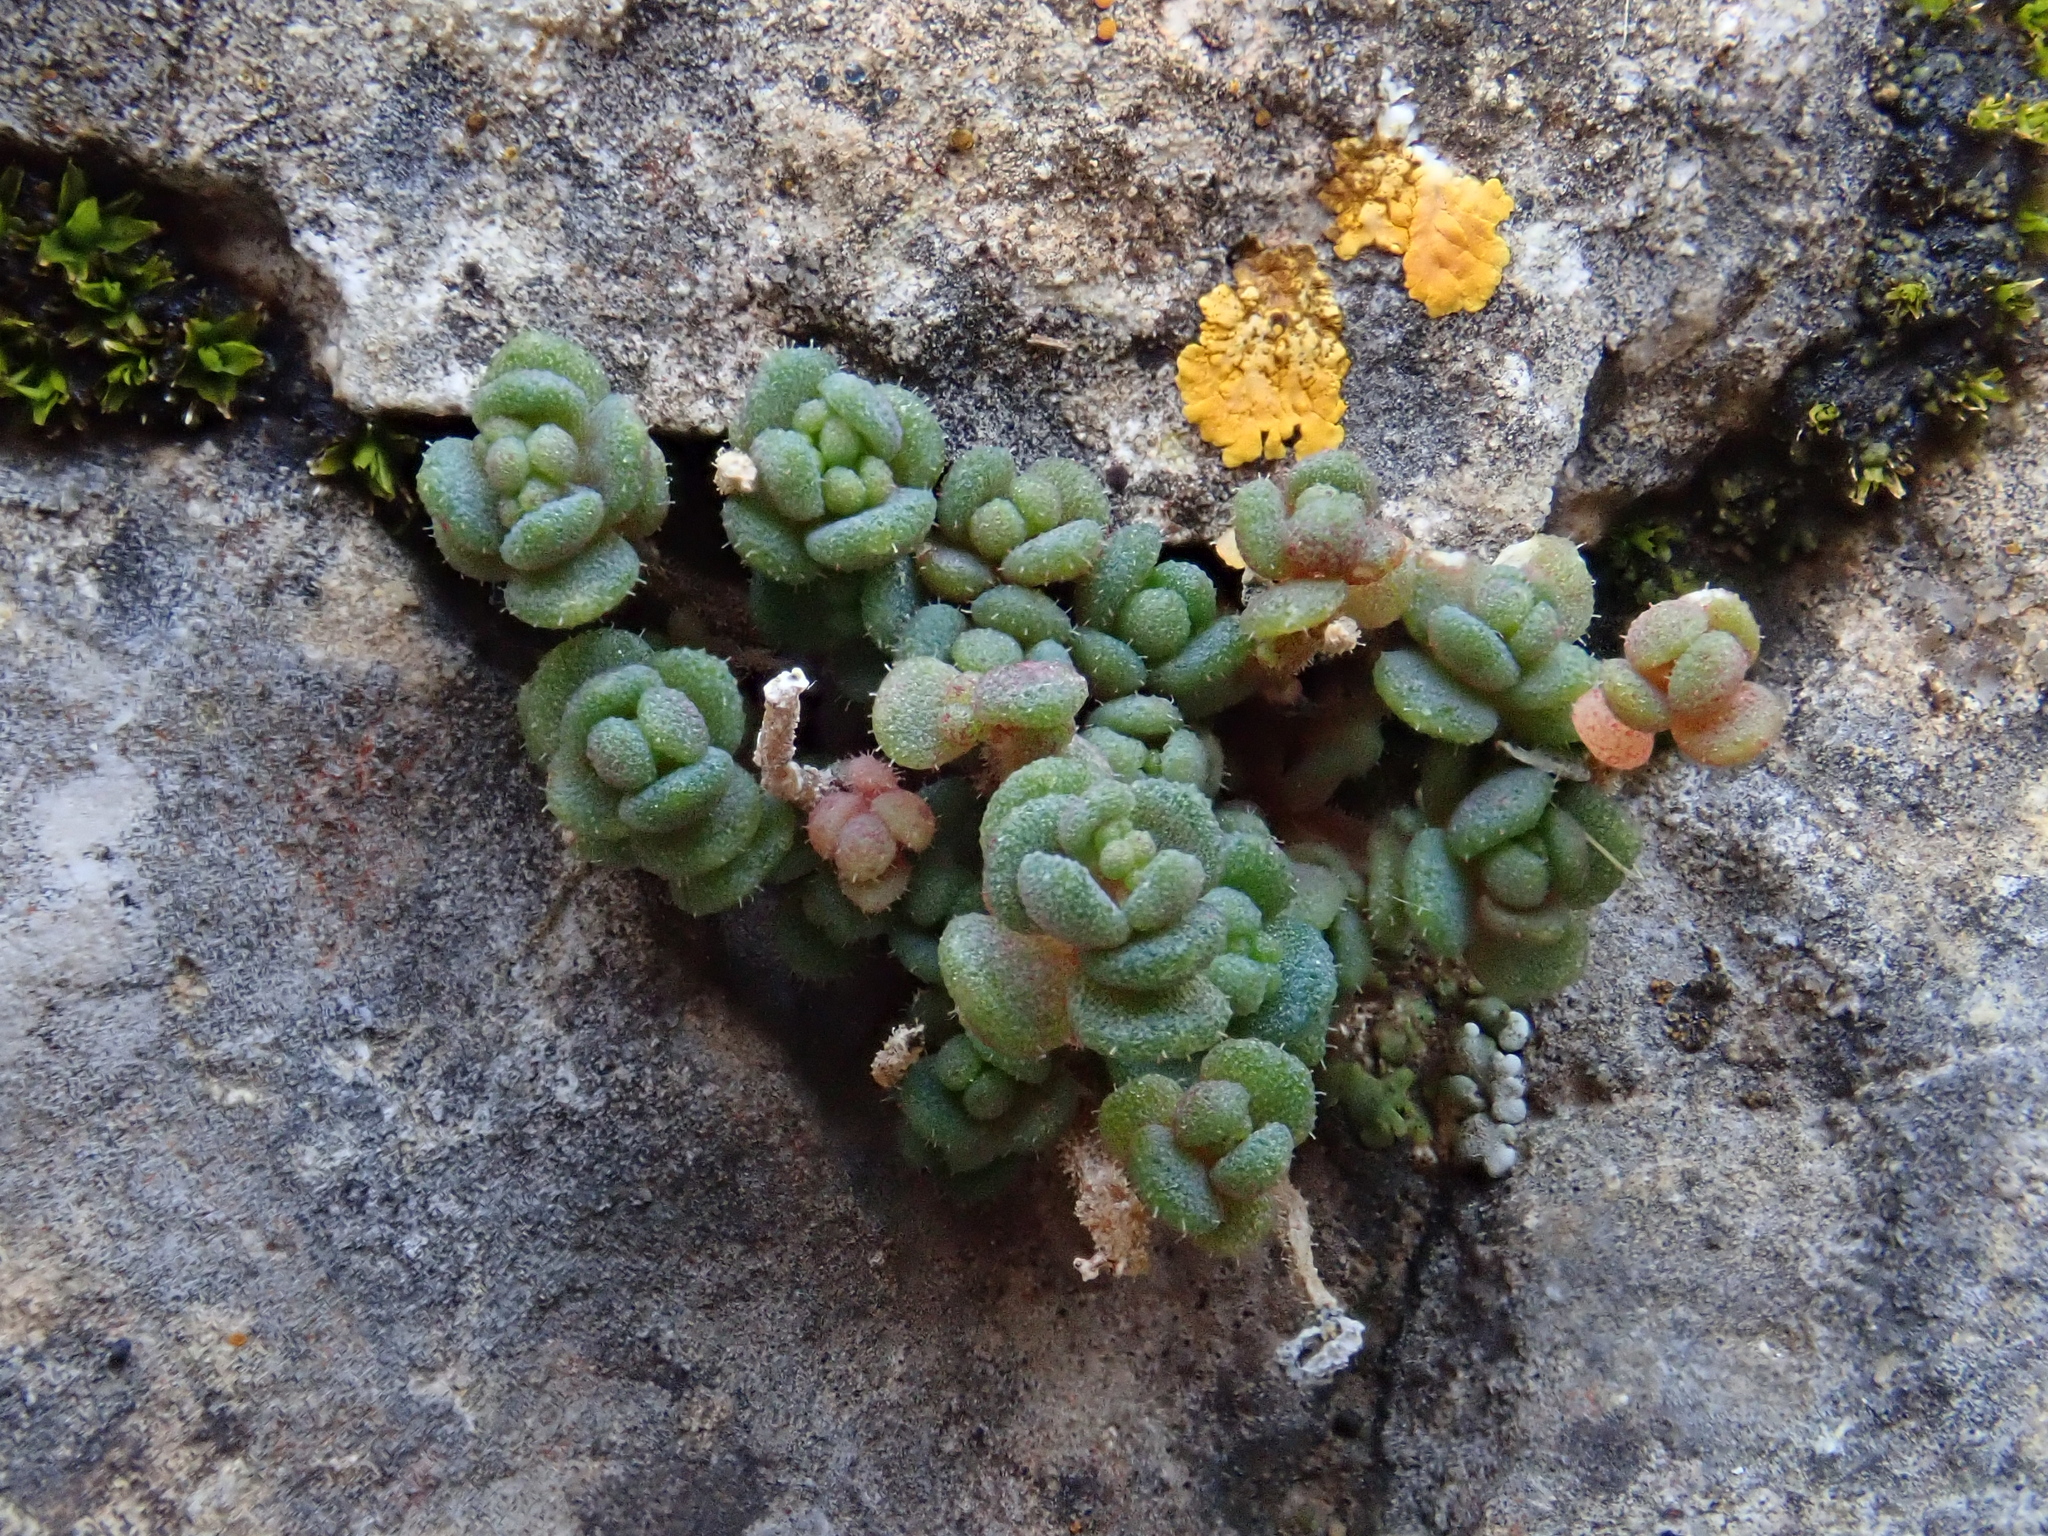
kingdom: Plantae
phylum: Tracheophyta
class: Magnoliopsida
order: Saxifragales
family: Crassulaceae
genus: Sedum
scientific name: Sedum dasyphyllum
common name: Thick-leaf stonecrop
